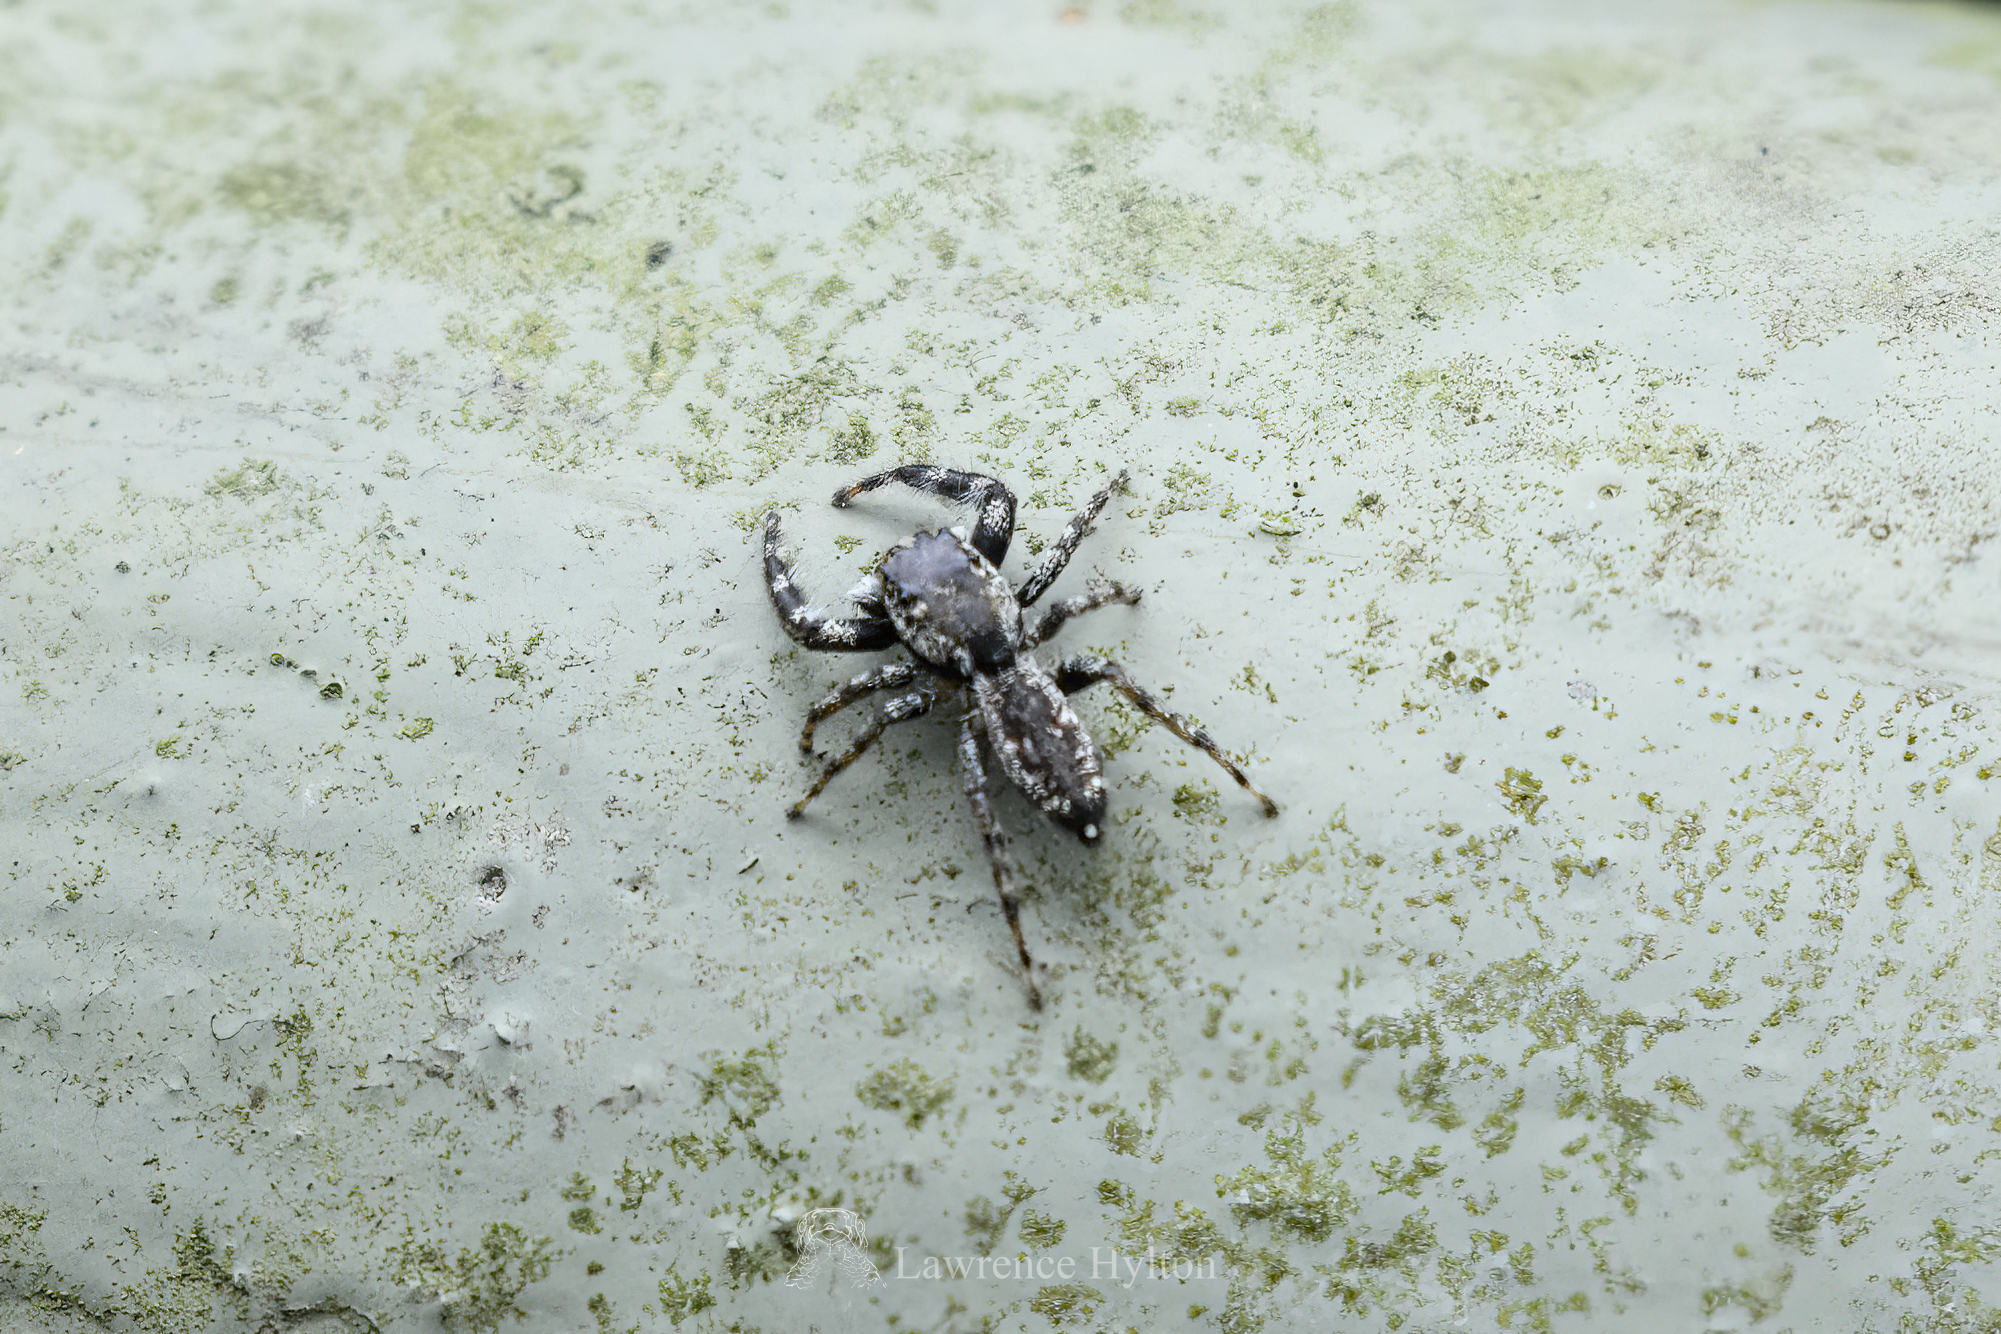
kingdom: Animalia
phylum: Arthropoda
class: Arachnida
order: Araneae
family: Salticidae
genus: Kelawakaju
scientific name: Kelawakaju frenata
